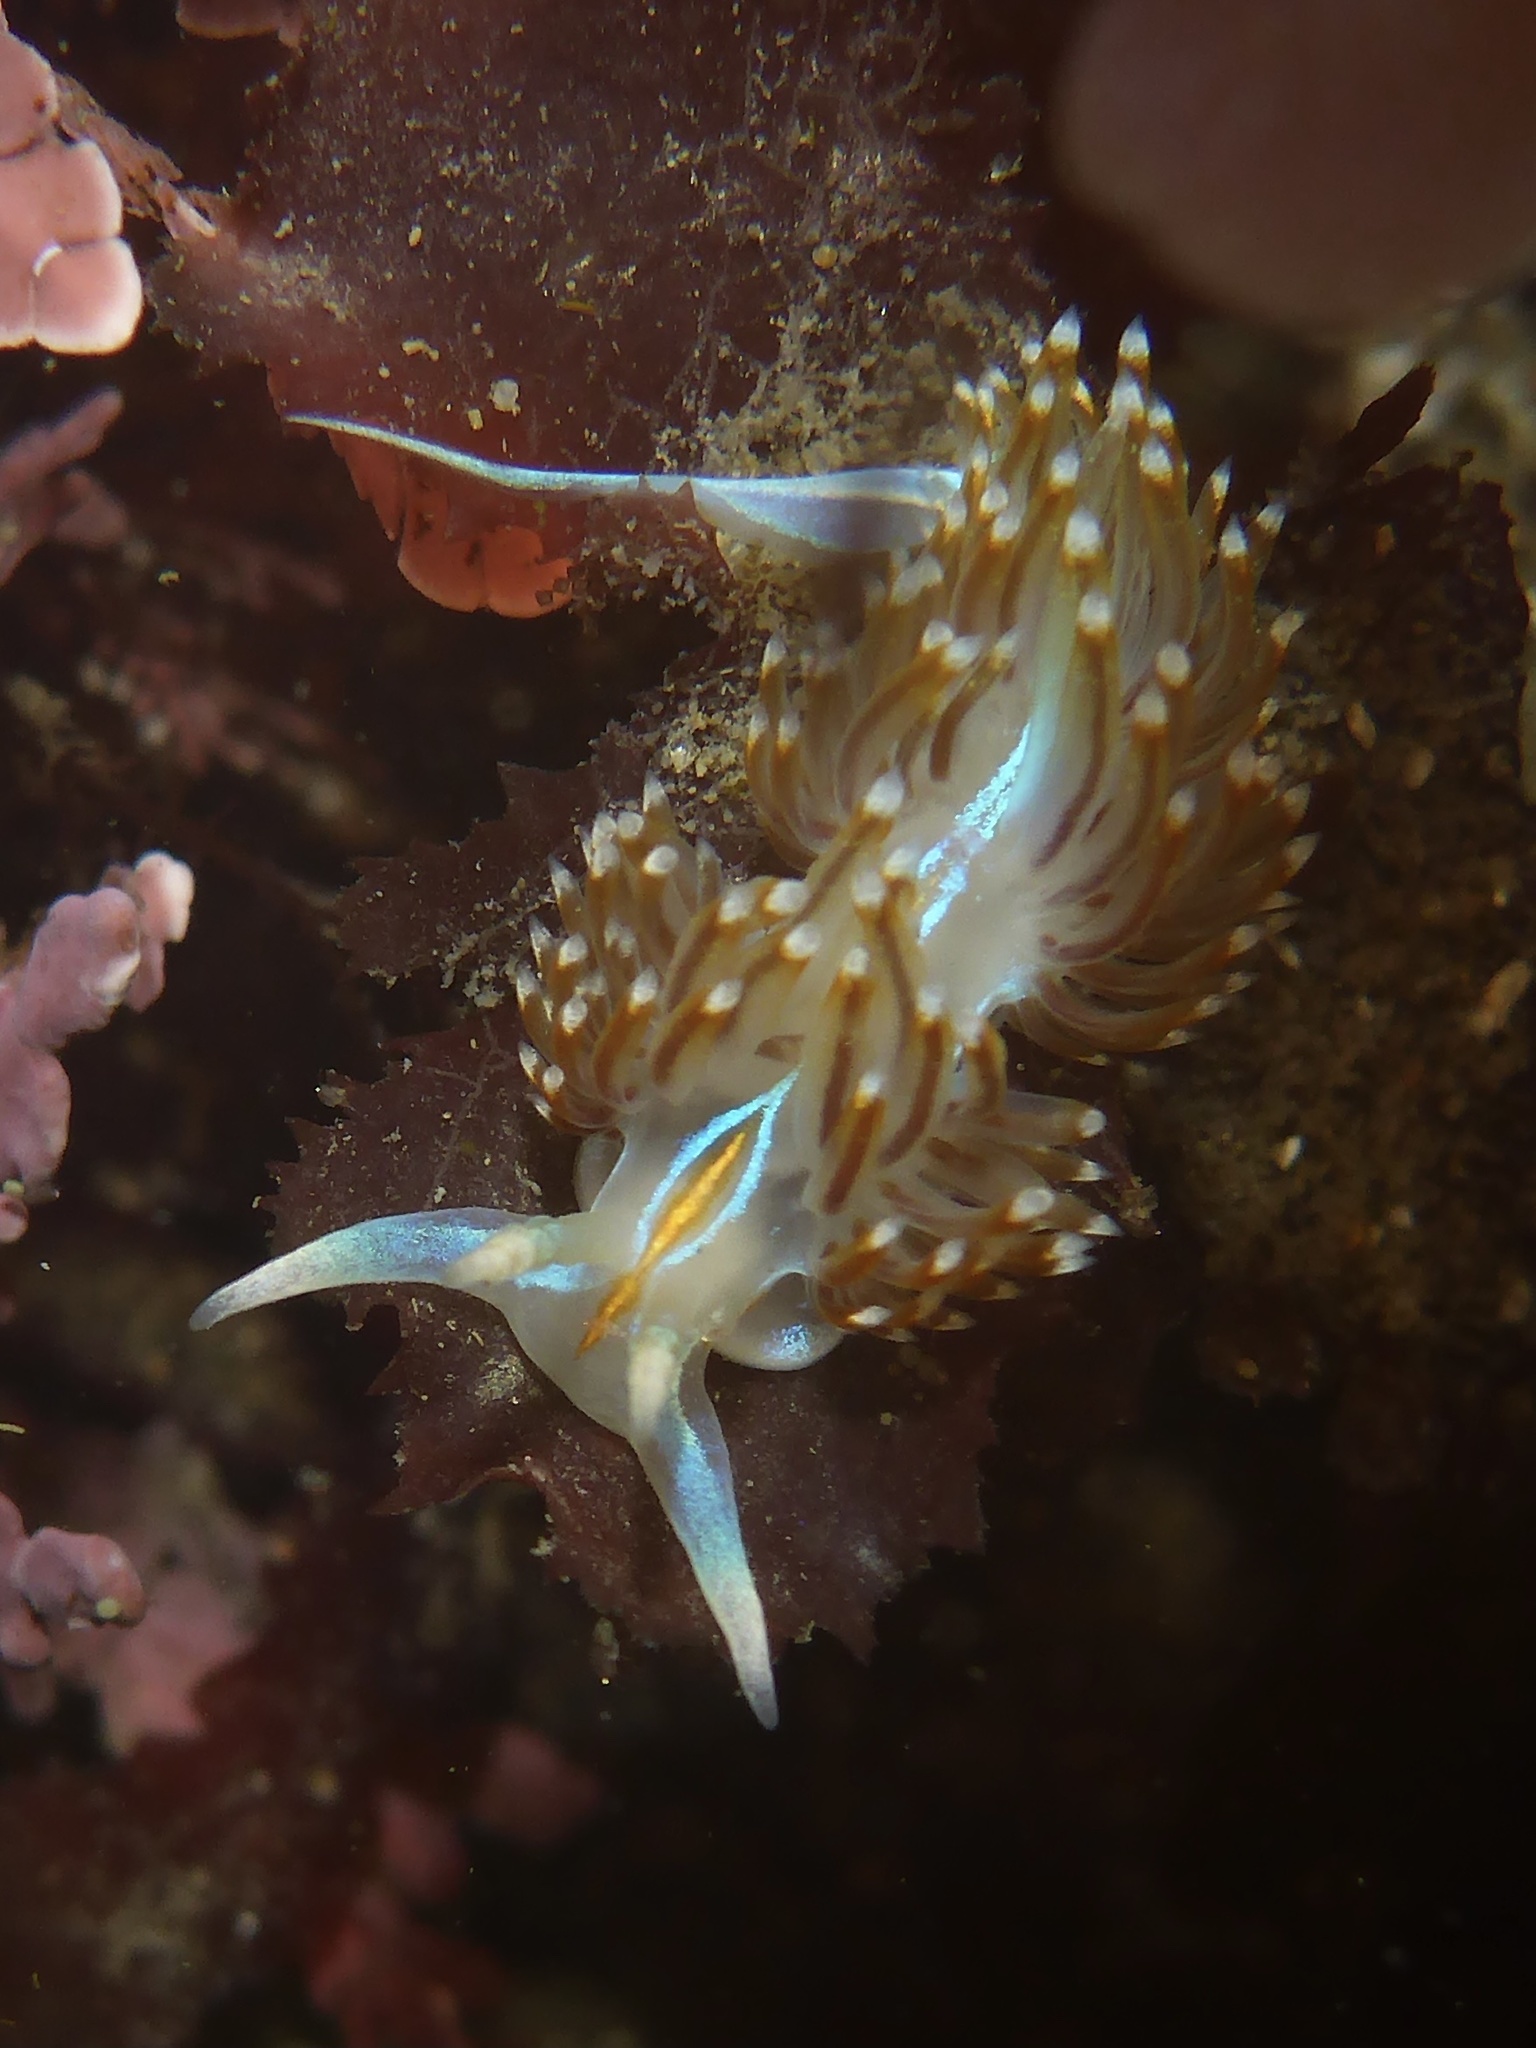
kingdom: Animalia
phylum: Mollusca
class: Gastropoda
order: Nudibranchia
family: Myrrhinidae
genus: Hermissenda
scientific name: Hermissenda opalescens
